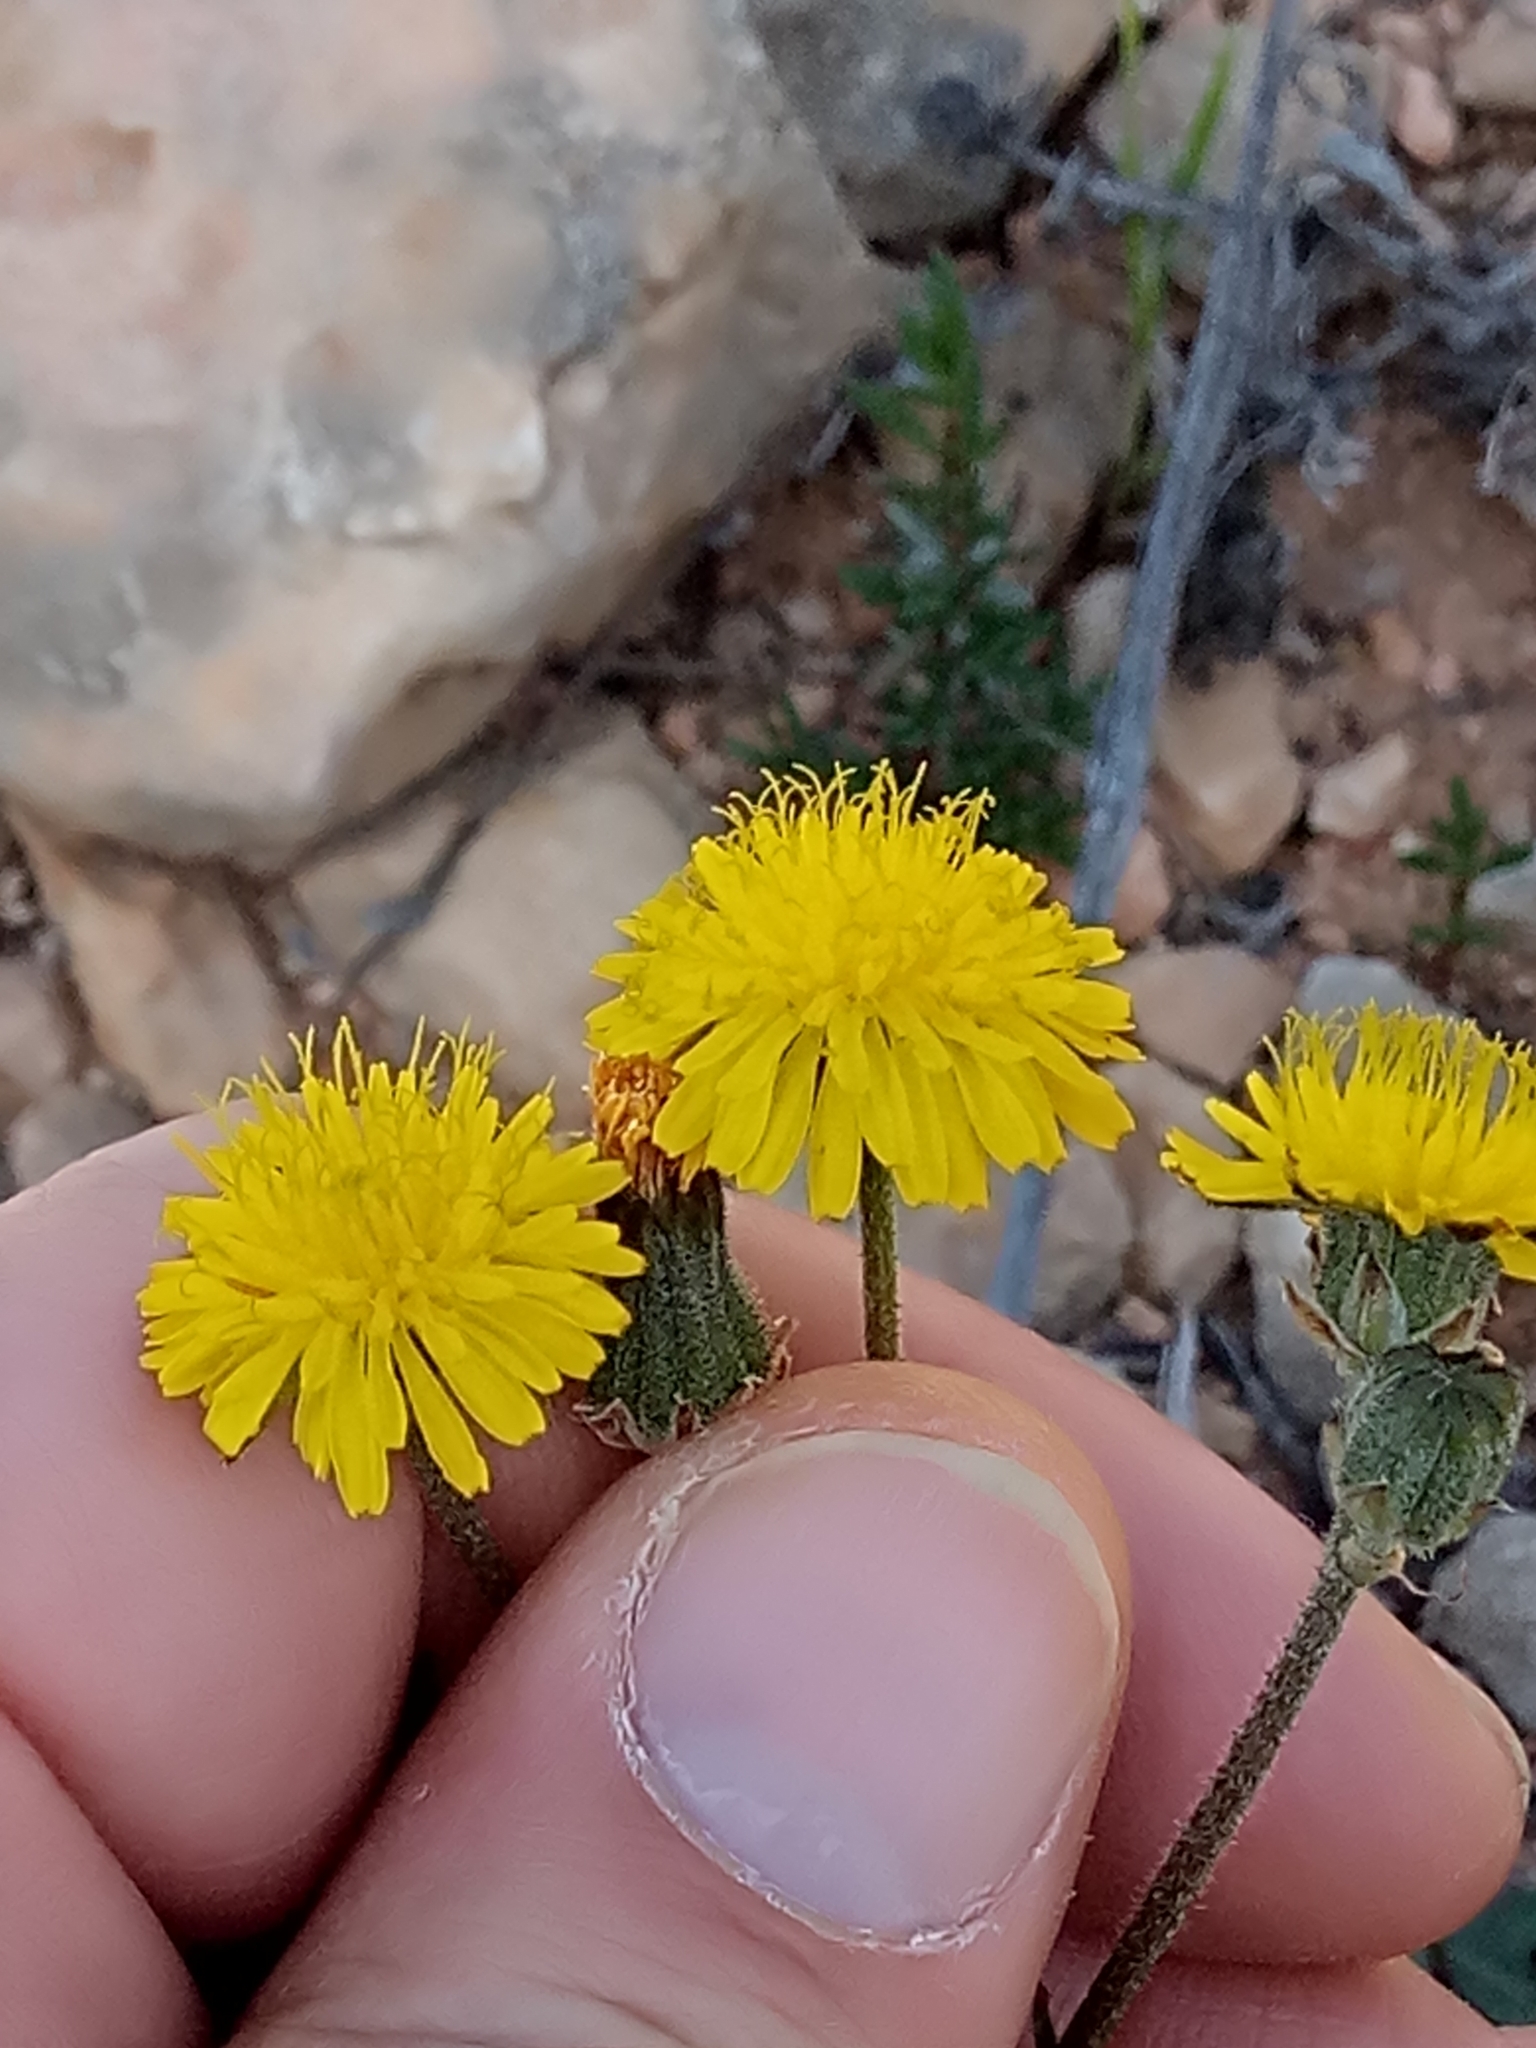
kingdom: Plantae
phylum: Tracheophyta
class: Magnoliopsida
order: Asterales
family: Asteraceae
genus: Crepis
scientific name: Crepis vesicaria
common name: Beaked hawksbeard
